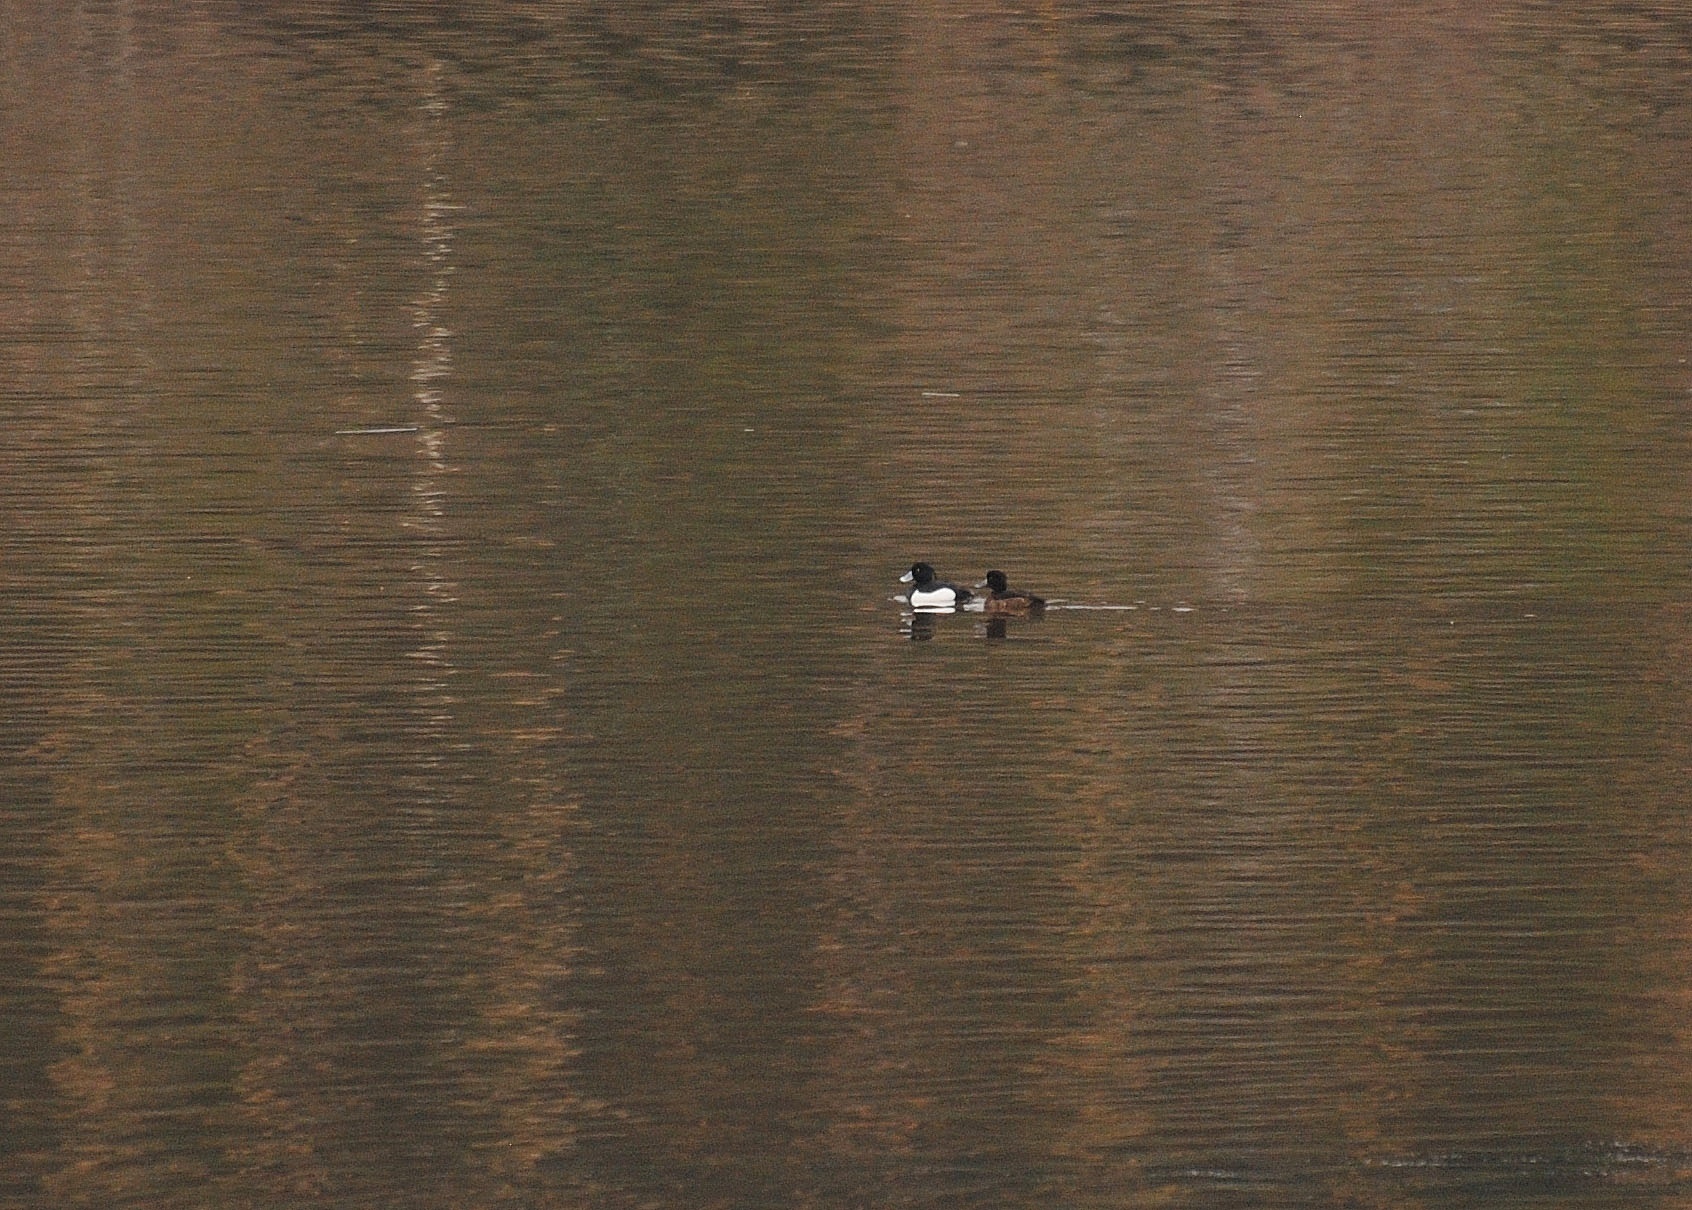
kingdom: Animalia
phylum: Chordata
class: Aves
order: Anseriformes
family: Anatidae
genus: Aythya
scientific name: Aythya fuligula
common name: Tufted duck
